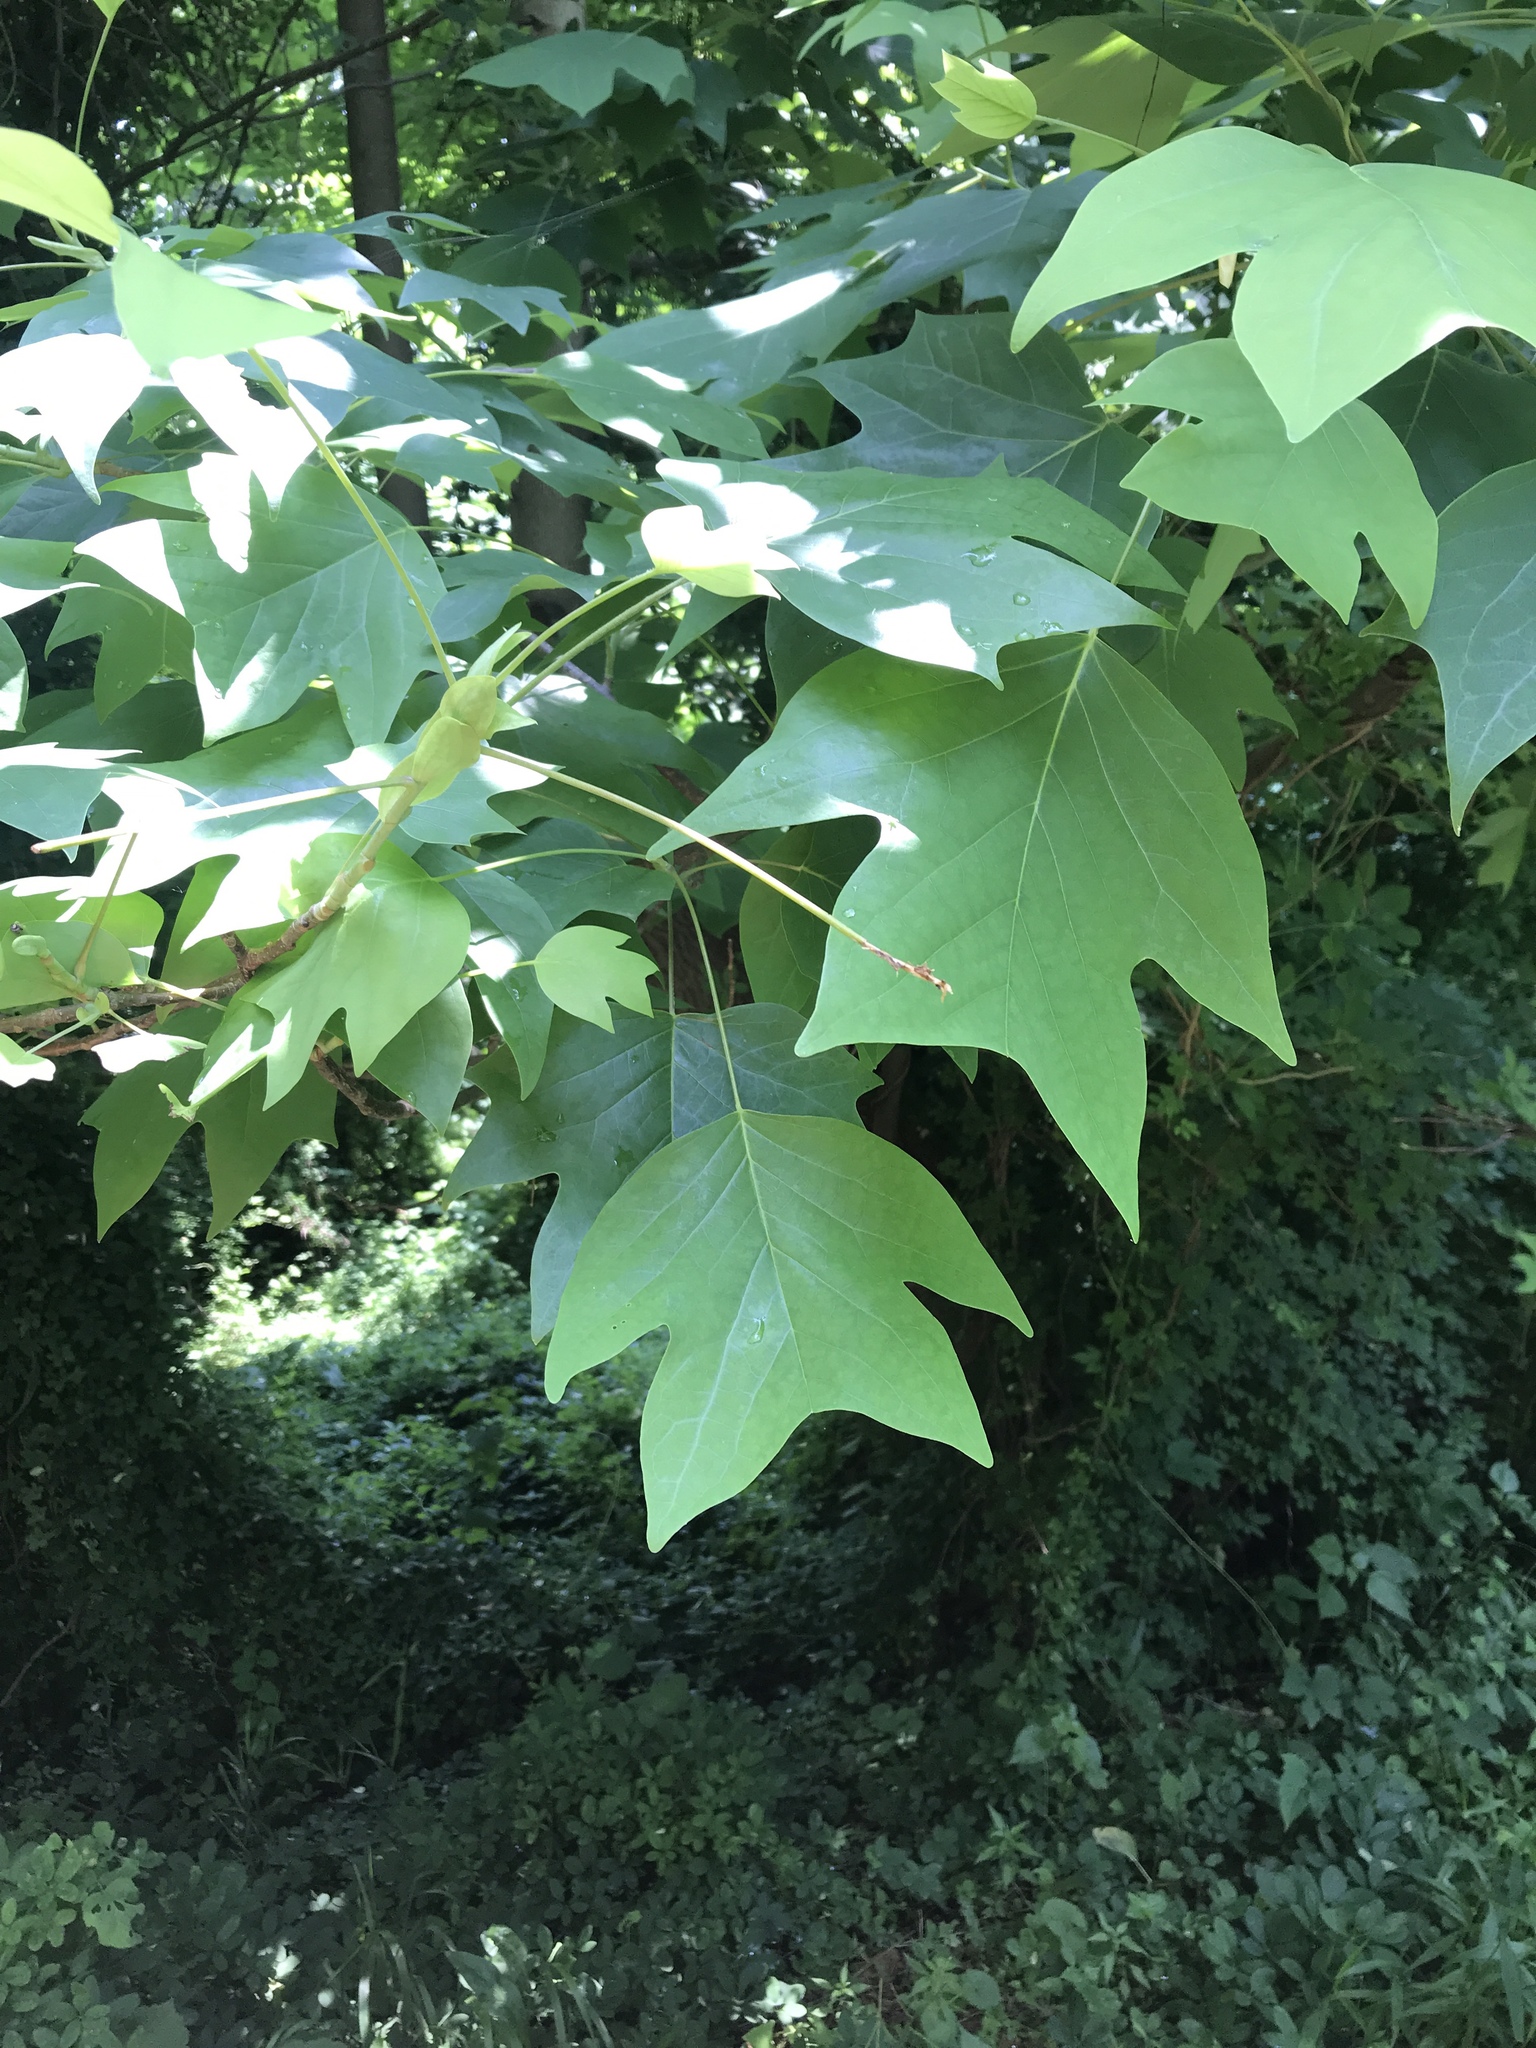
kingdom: Plantae
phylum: Tracheophyta
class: Magnoliopsida
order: Magnoliales
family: Magnoliaceae
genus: Liriodendron
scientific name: Liriodendron tulipifera
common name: Tulip tree
